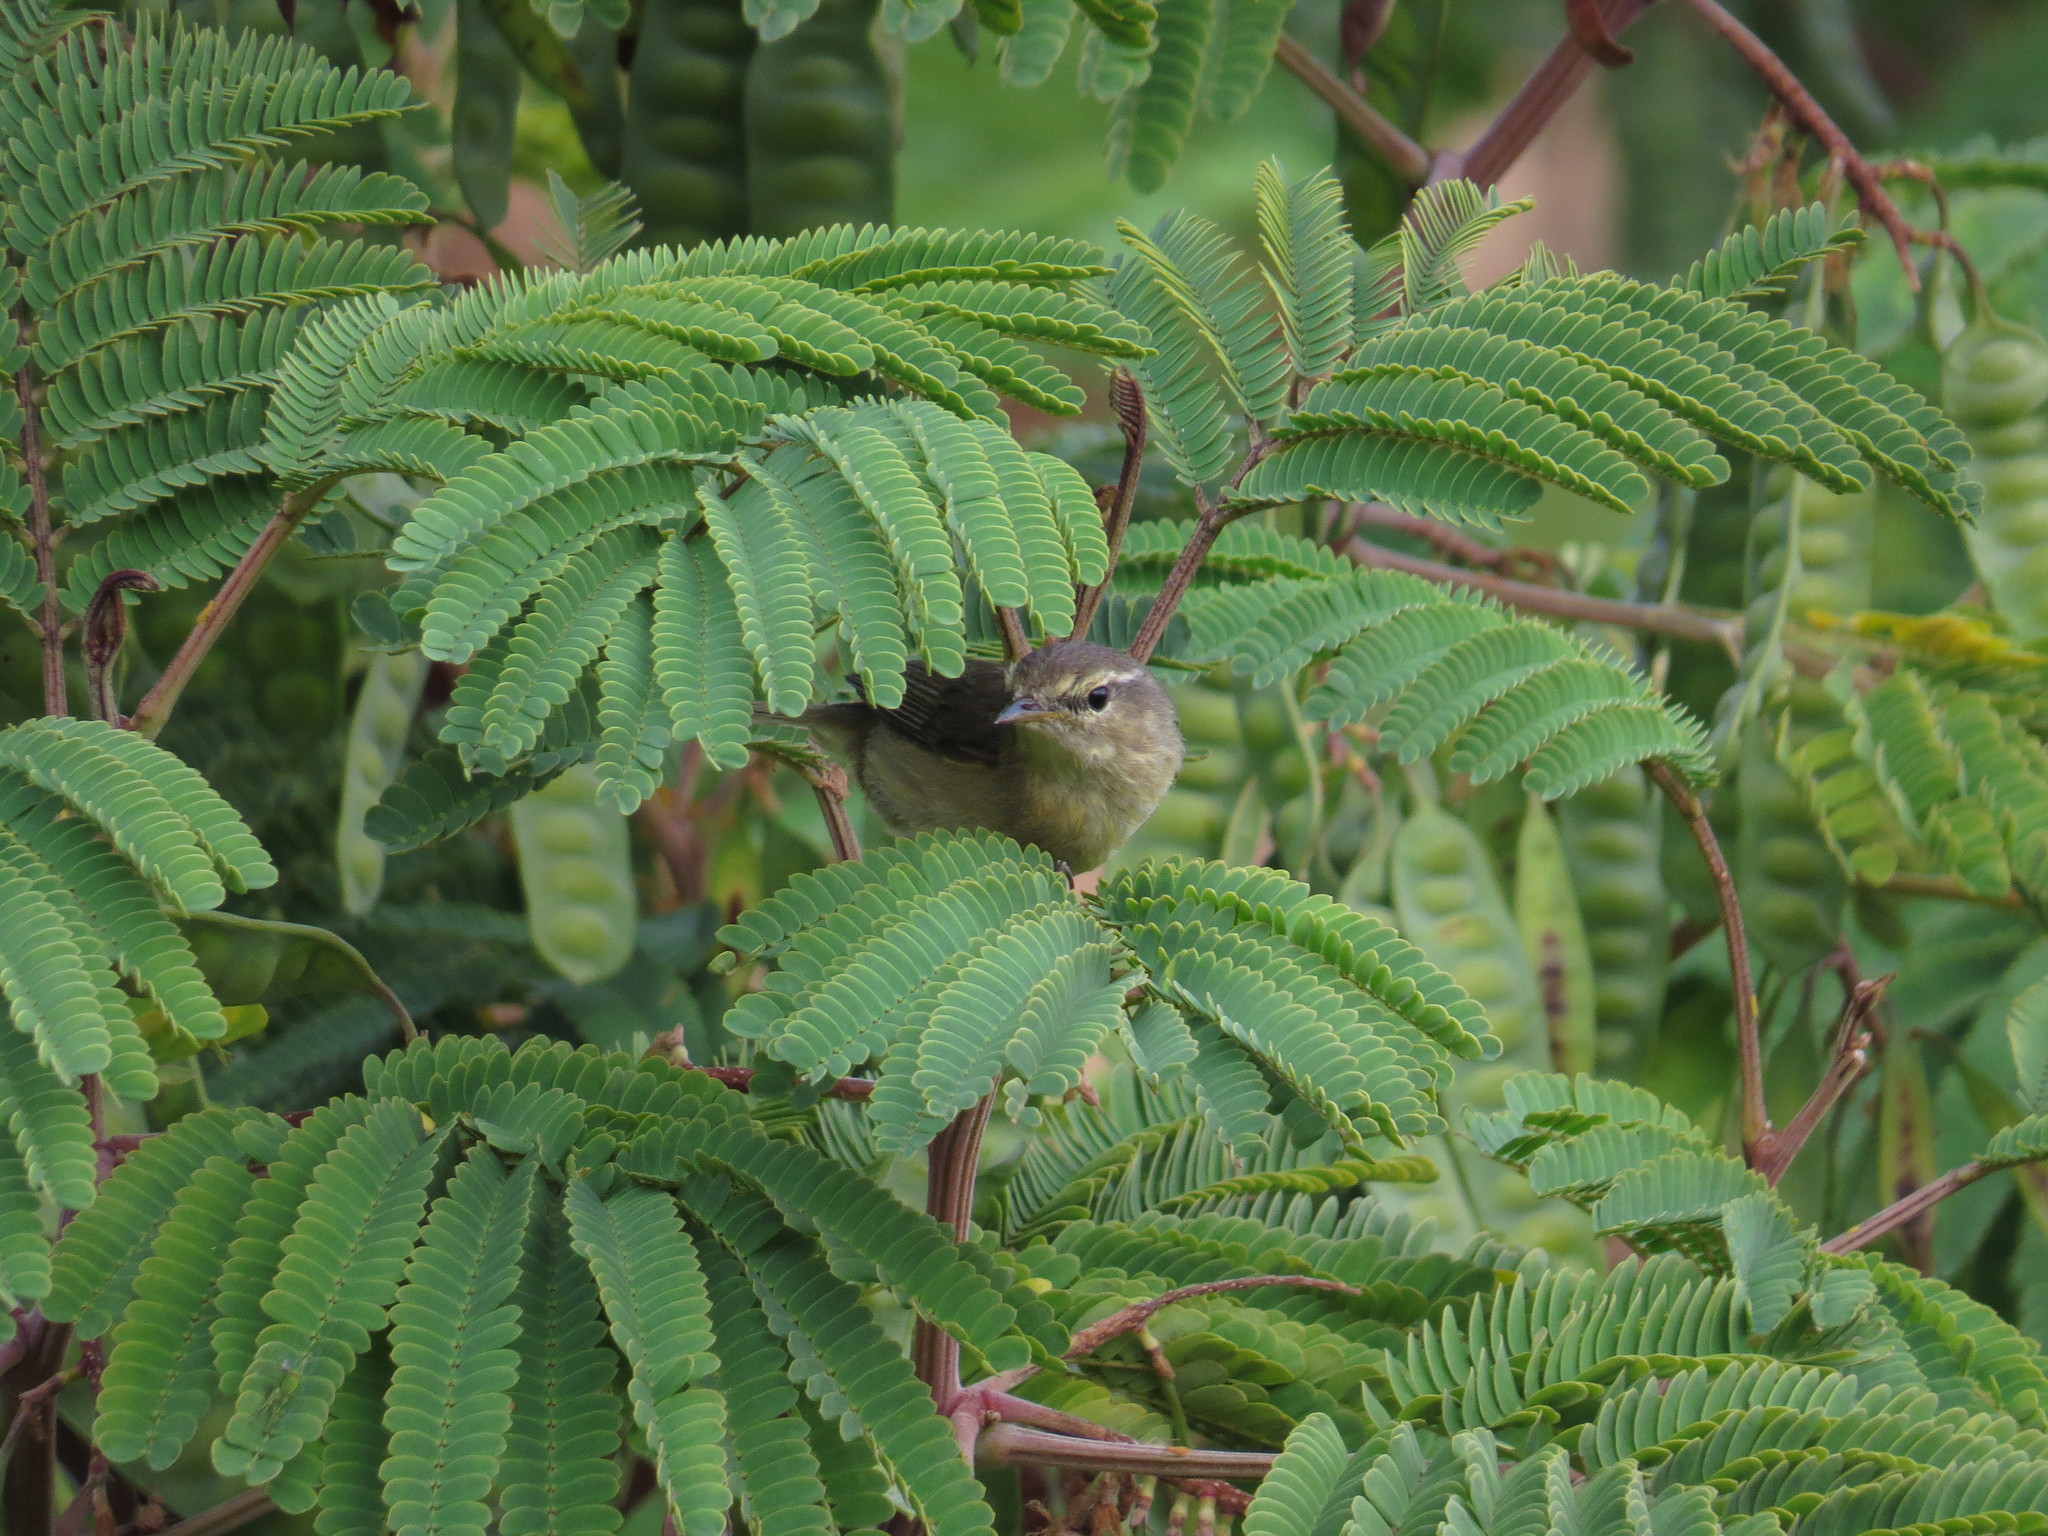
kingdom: Animalia
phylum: Chordata
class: Aves
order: Passeriformes
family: Phylloscopidae
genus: Phylloscopus
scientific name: Phylloscopus canariensis
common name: Canary islands chiffchaff
